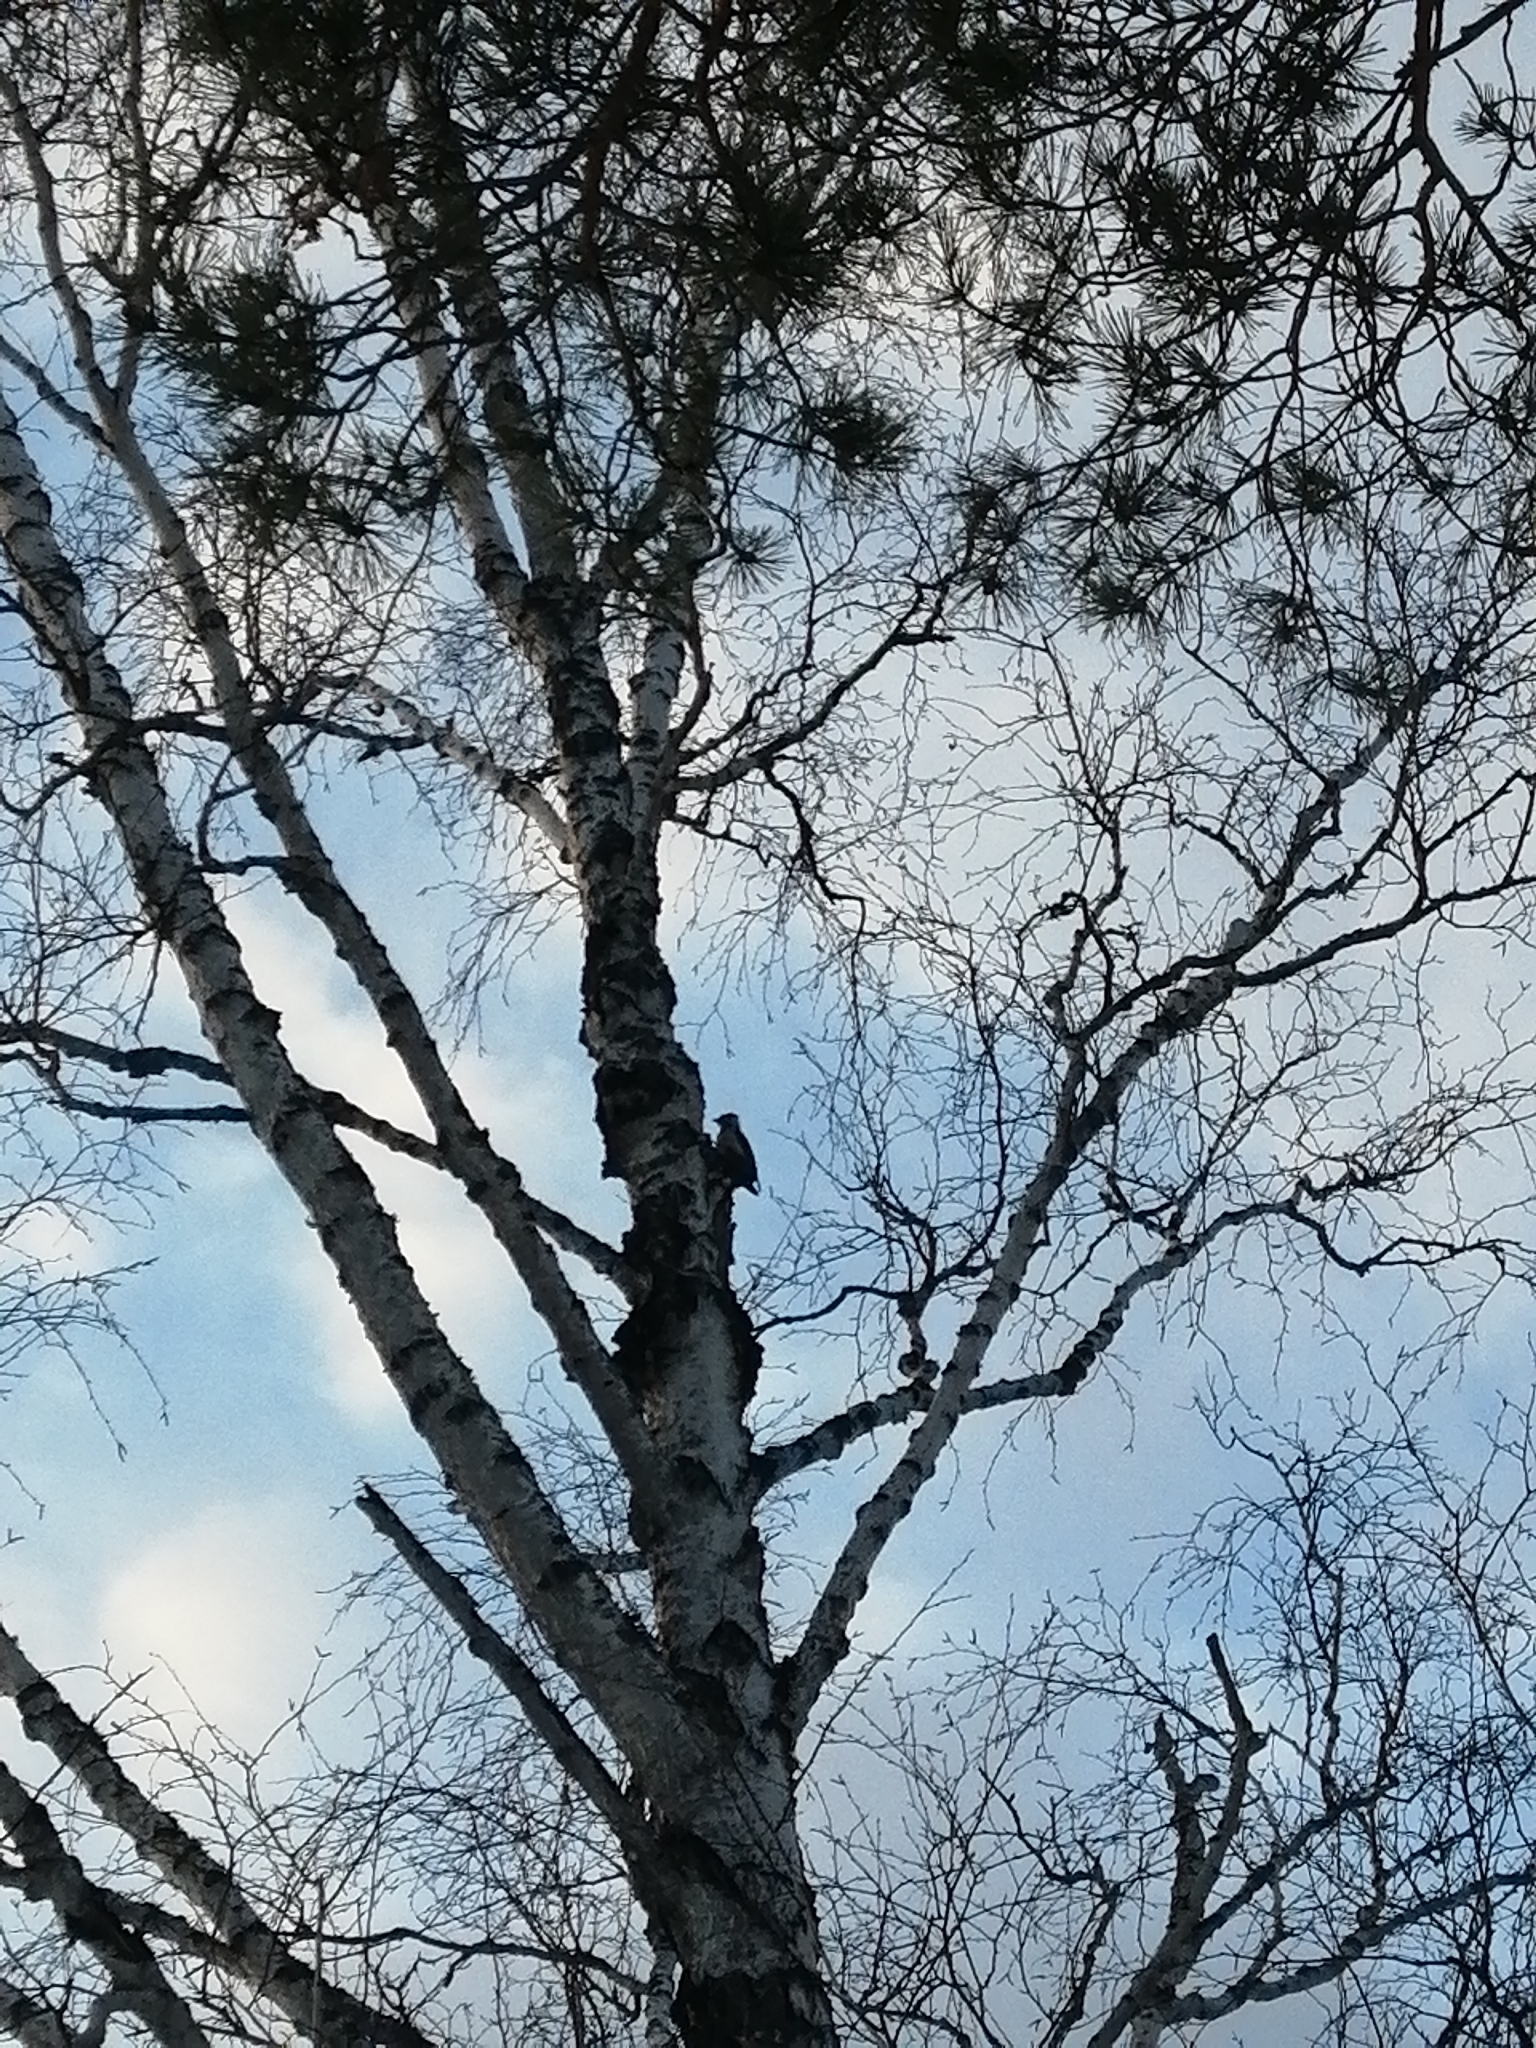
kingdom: Animalia
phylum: Chordata
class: Aves
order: Piciformes
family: Picidae
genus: Dendrocopos
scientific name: Dendrocopos major
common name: Great spotted woodpecker
